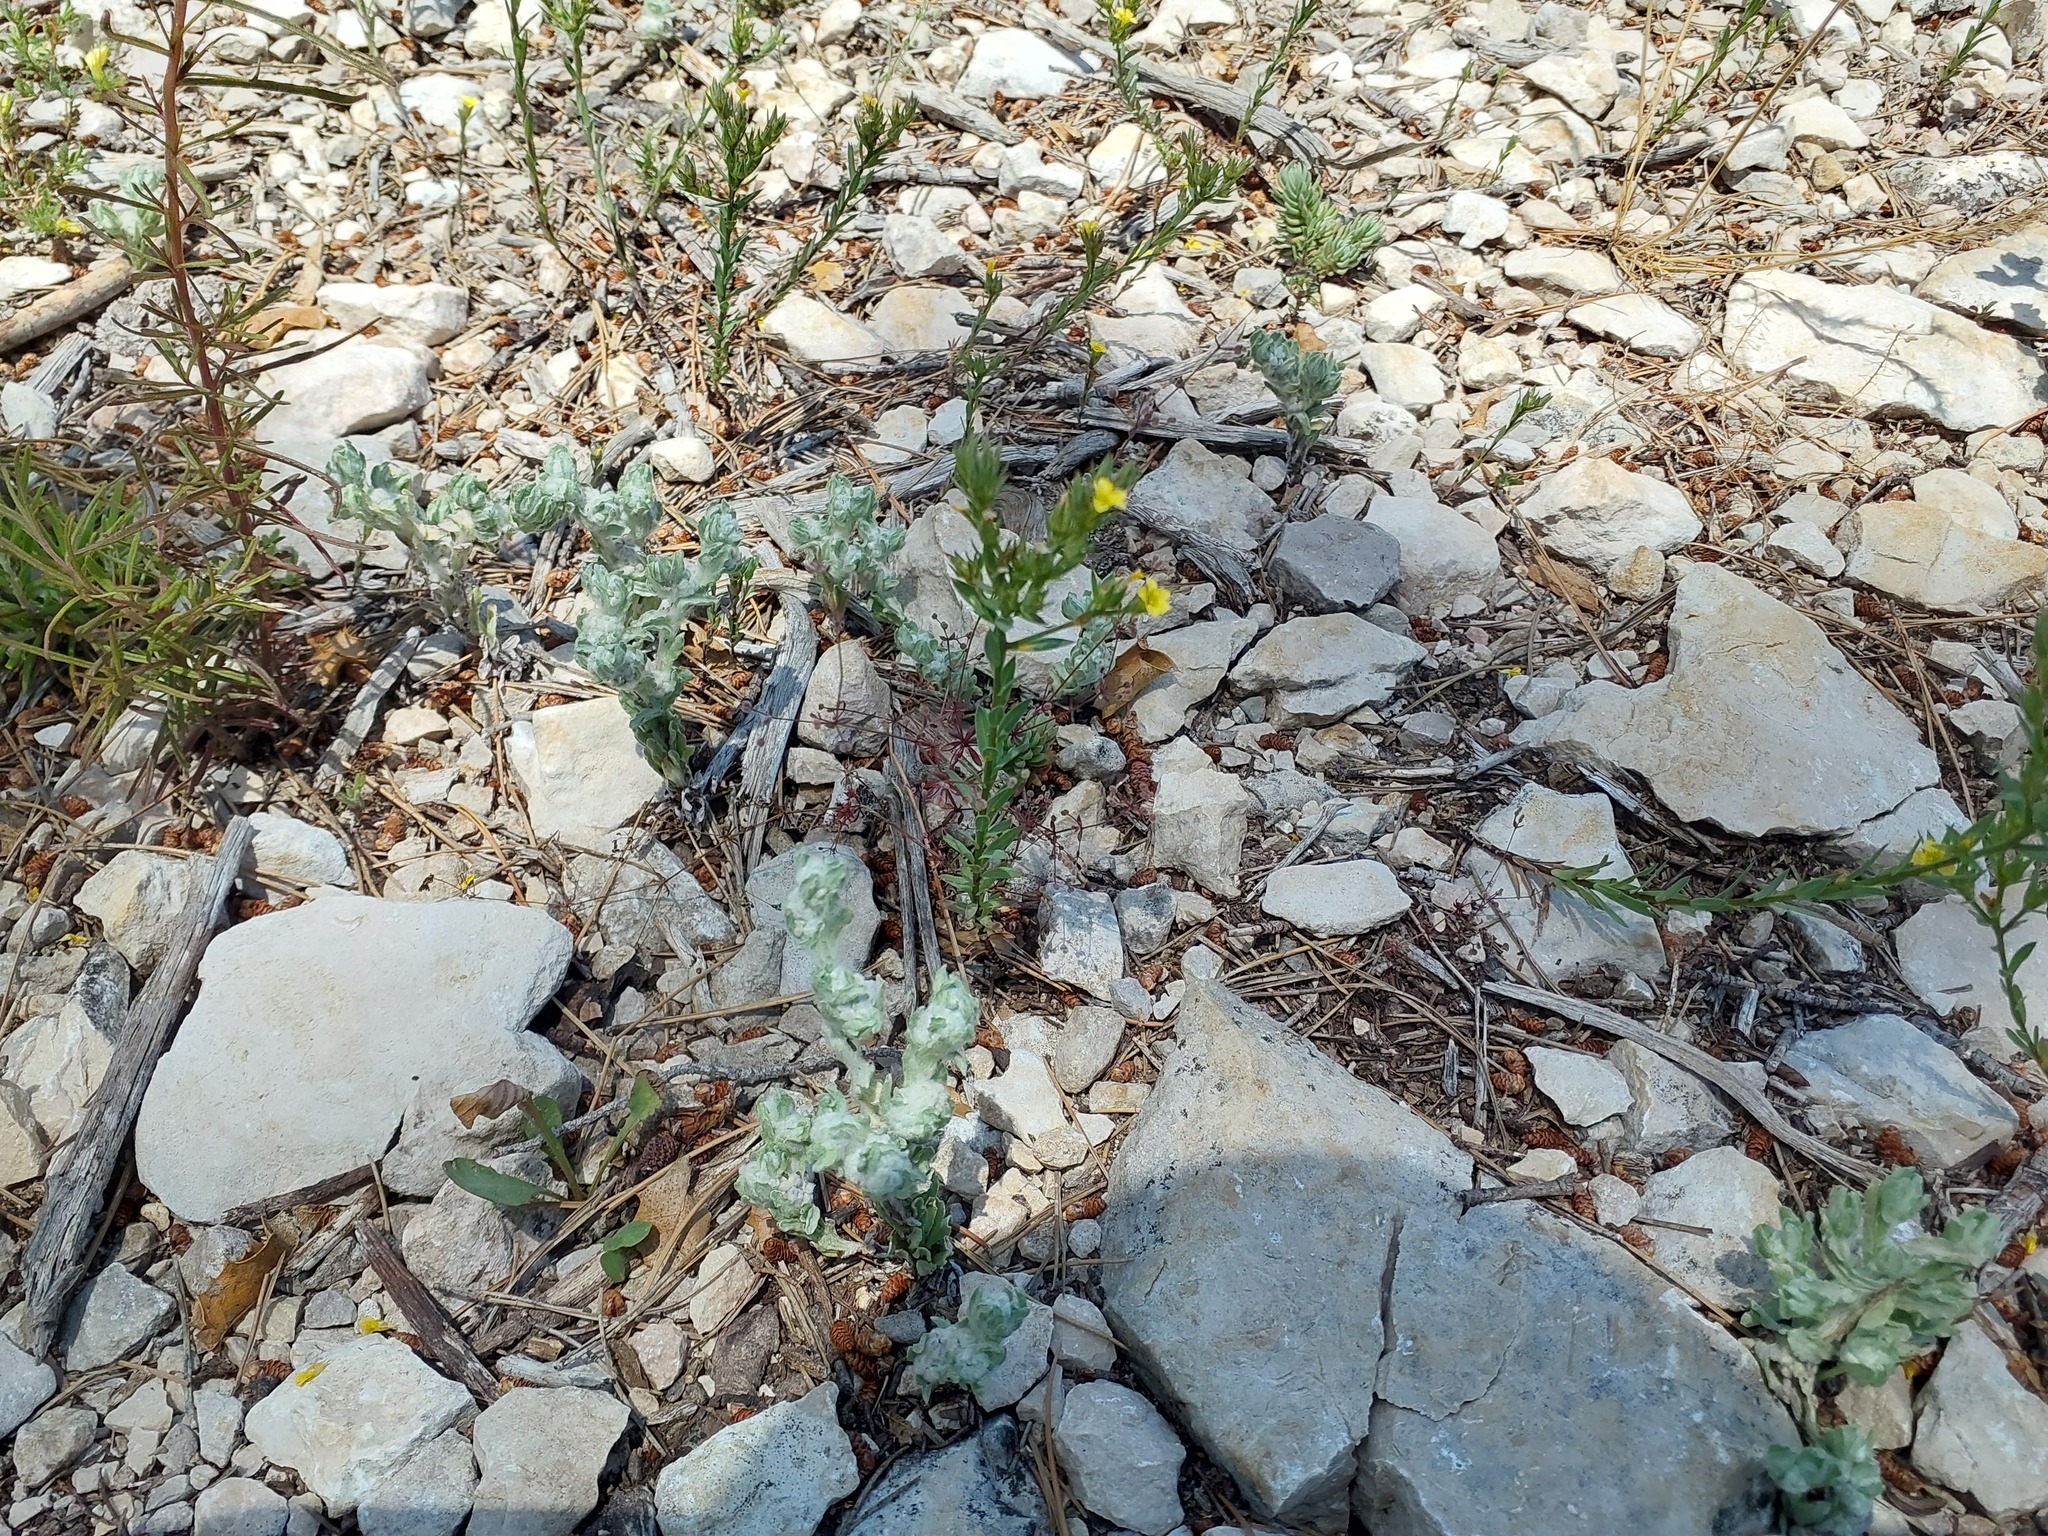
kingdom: Plantae
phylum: Tracheophyta
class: Magnoliopsida
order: Malpighiales
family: Linaceae
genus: Linum
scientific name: Linum strictum
